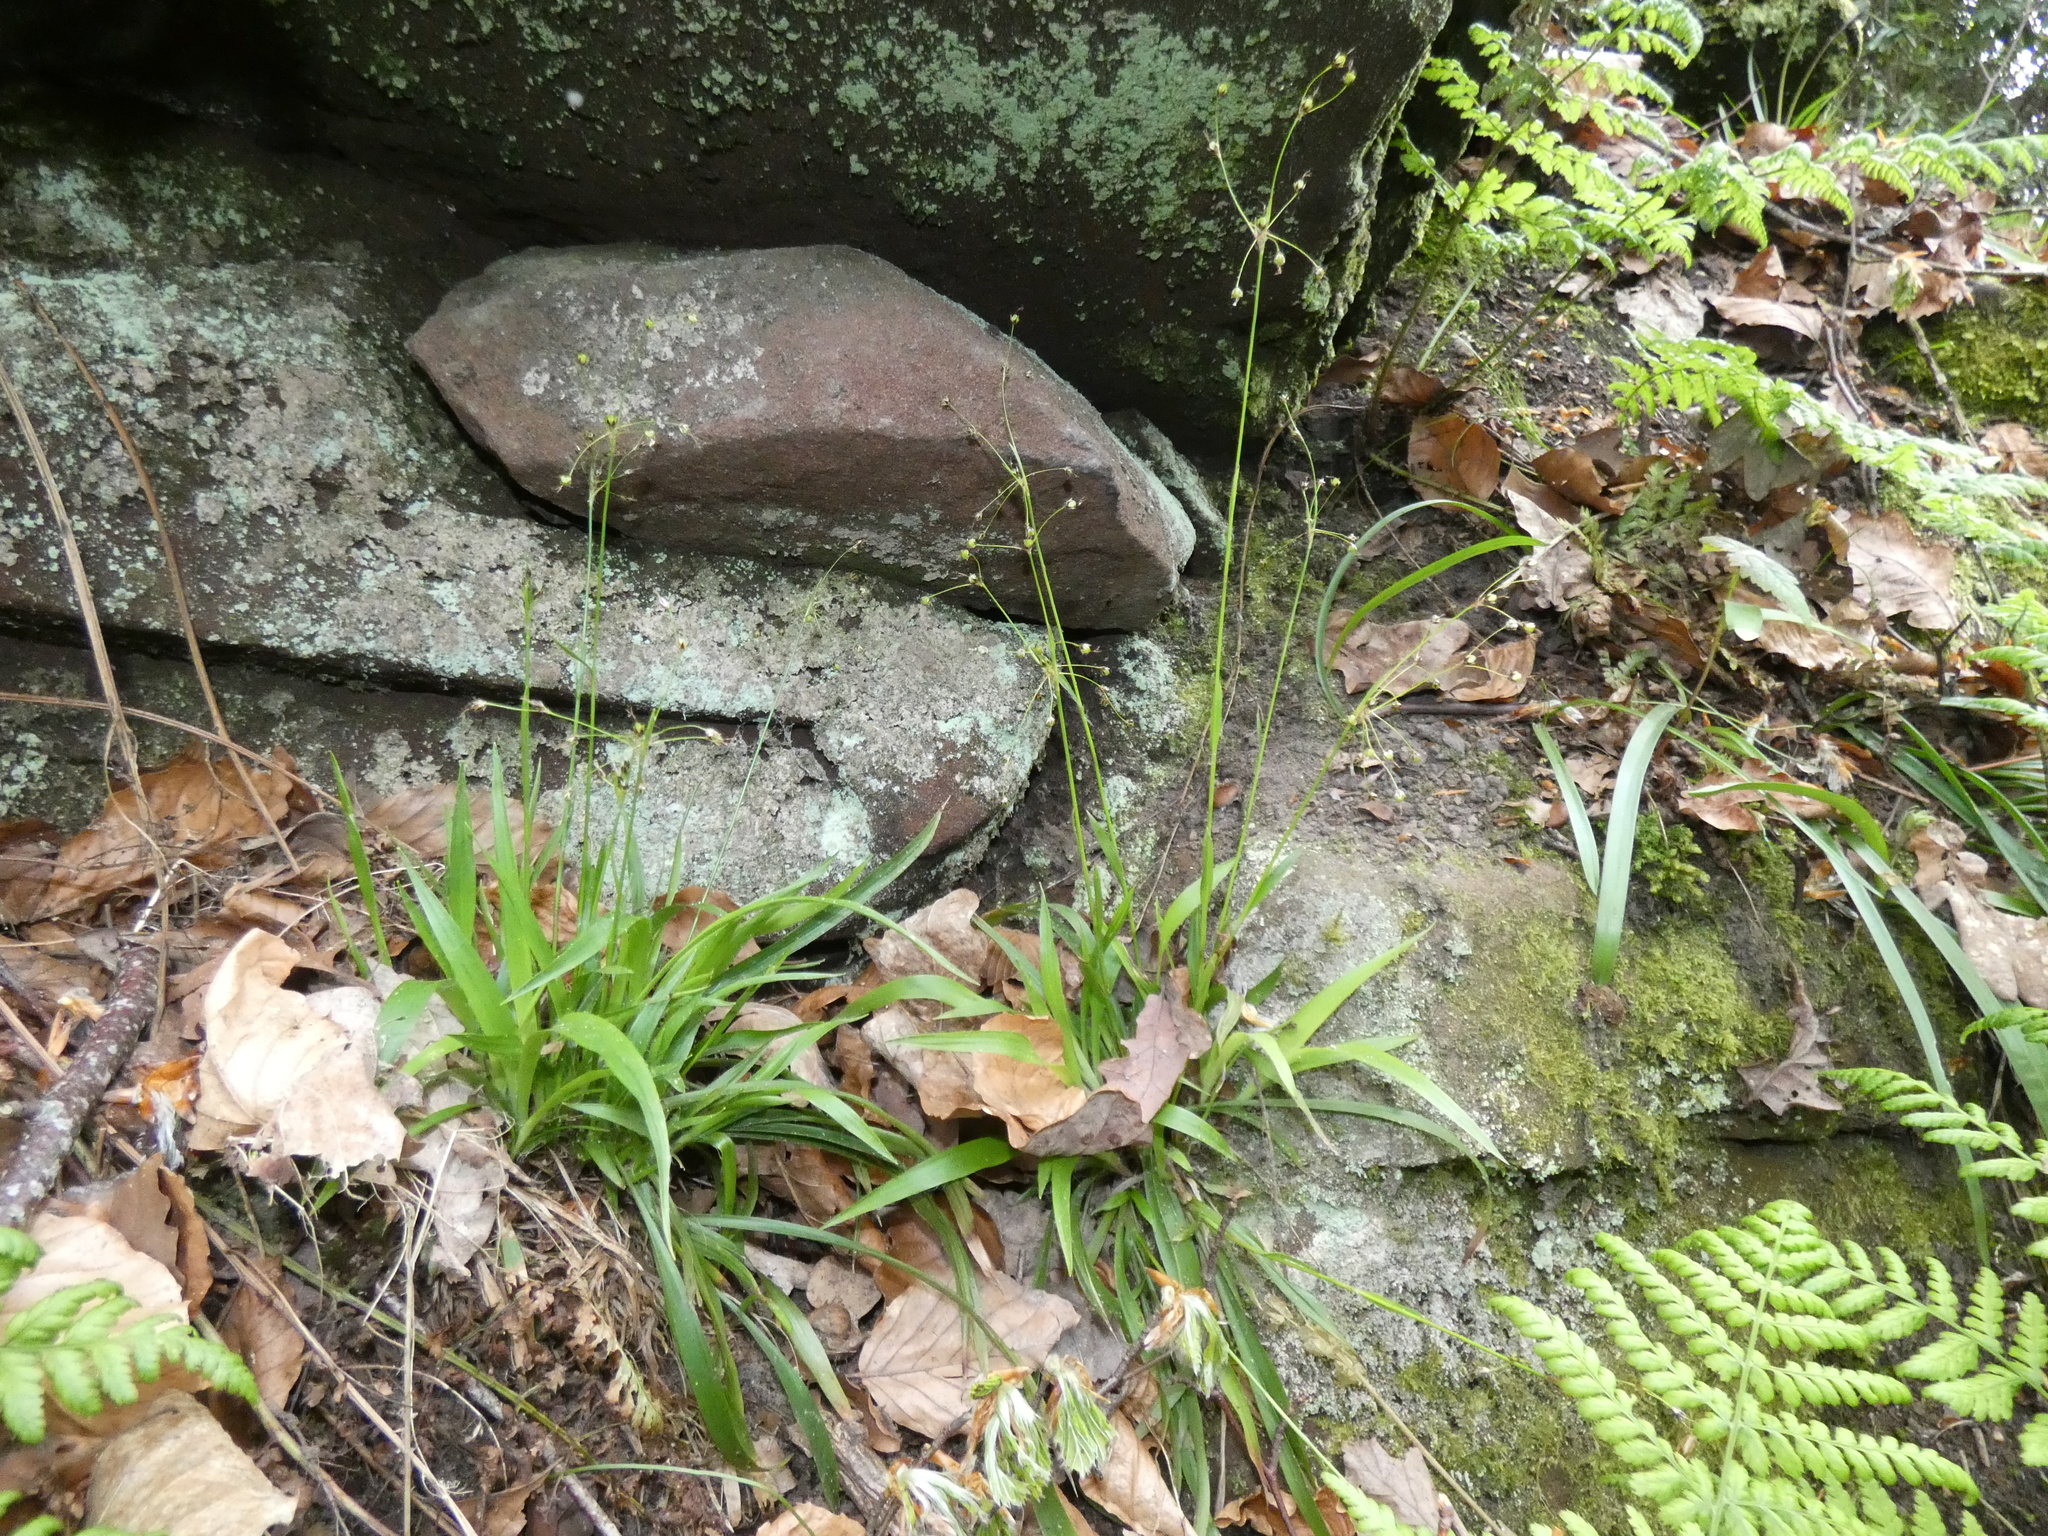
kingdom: Plantae
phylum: Tracheophyta
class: Liliopsida
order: Poales
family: Juncaceae
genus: Luzula
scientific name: Luzula pilosa
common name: Hairy wood-rush
